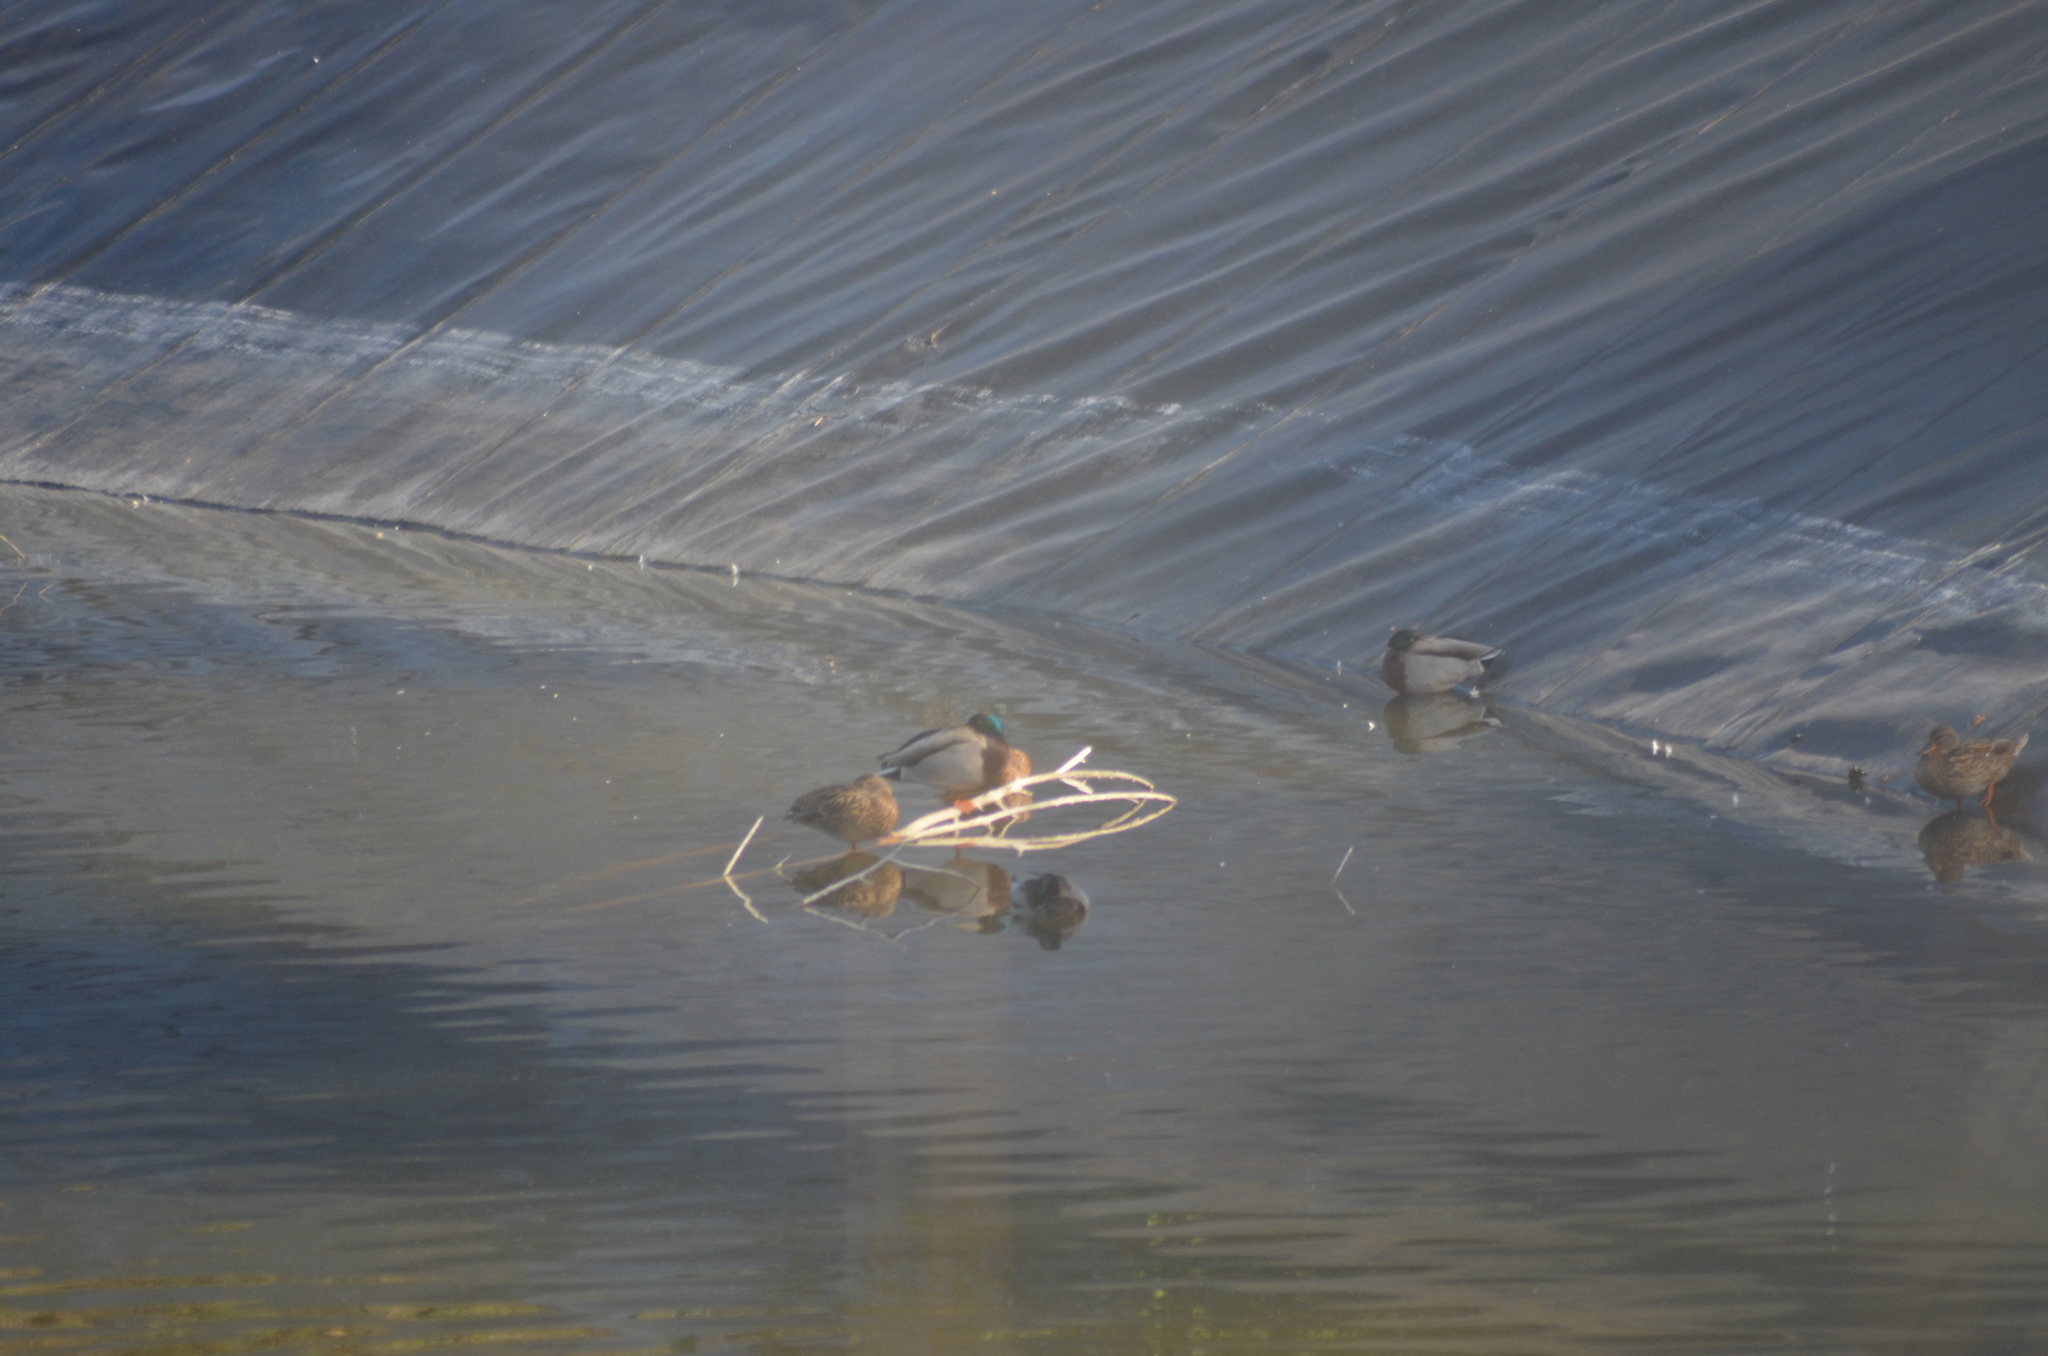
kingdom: Animalia
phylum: Chordata
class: Aves
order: Anseriformes
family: Anatidae
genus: Anas
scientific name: Anas platyrhynchos
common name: Mallard
